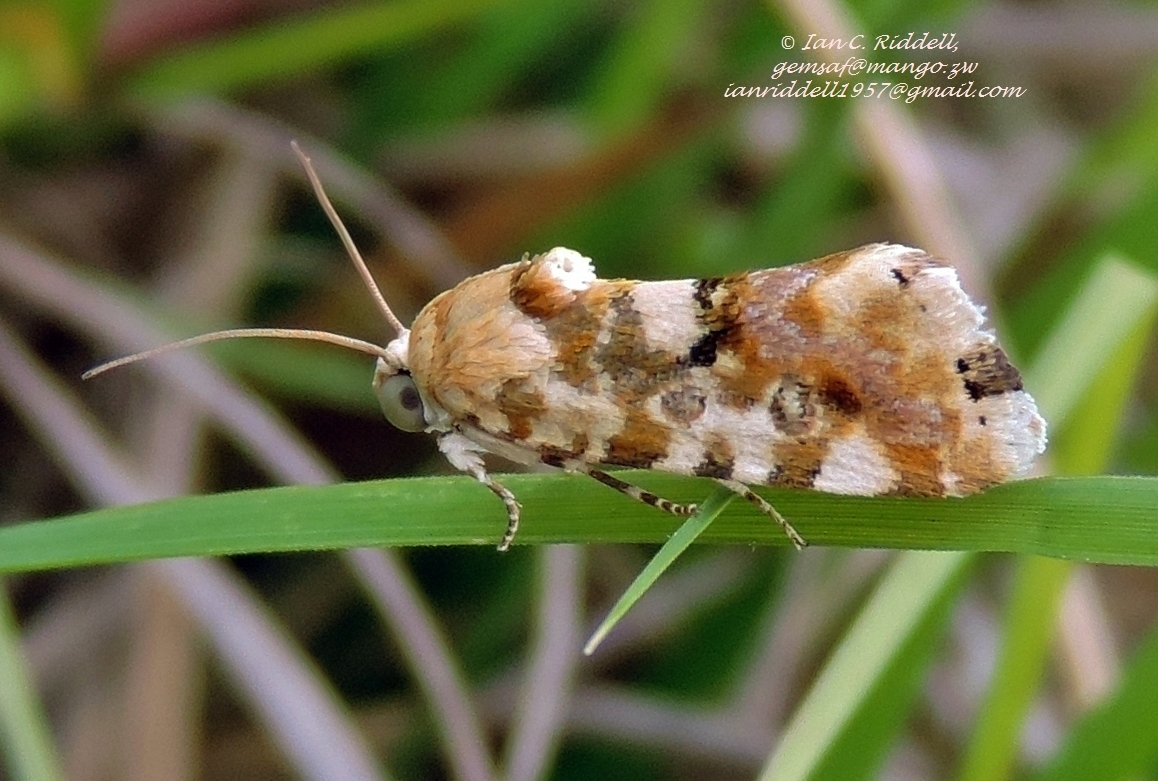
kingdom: Animalia
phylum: Arthropoda
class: Insecta
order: Lepidoptera
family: Noctuidae
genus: Acontia
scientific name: Acontia zelleri
